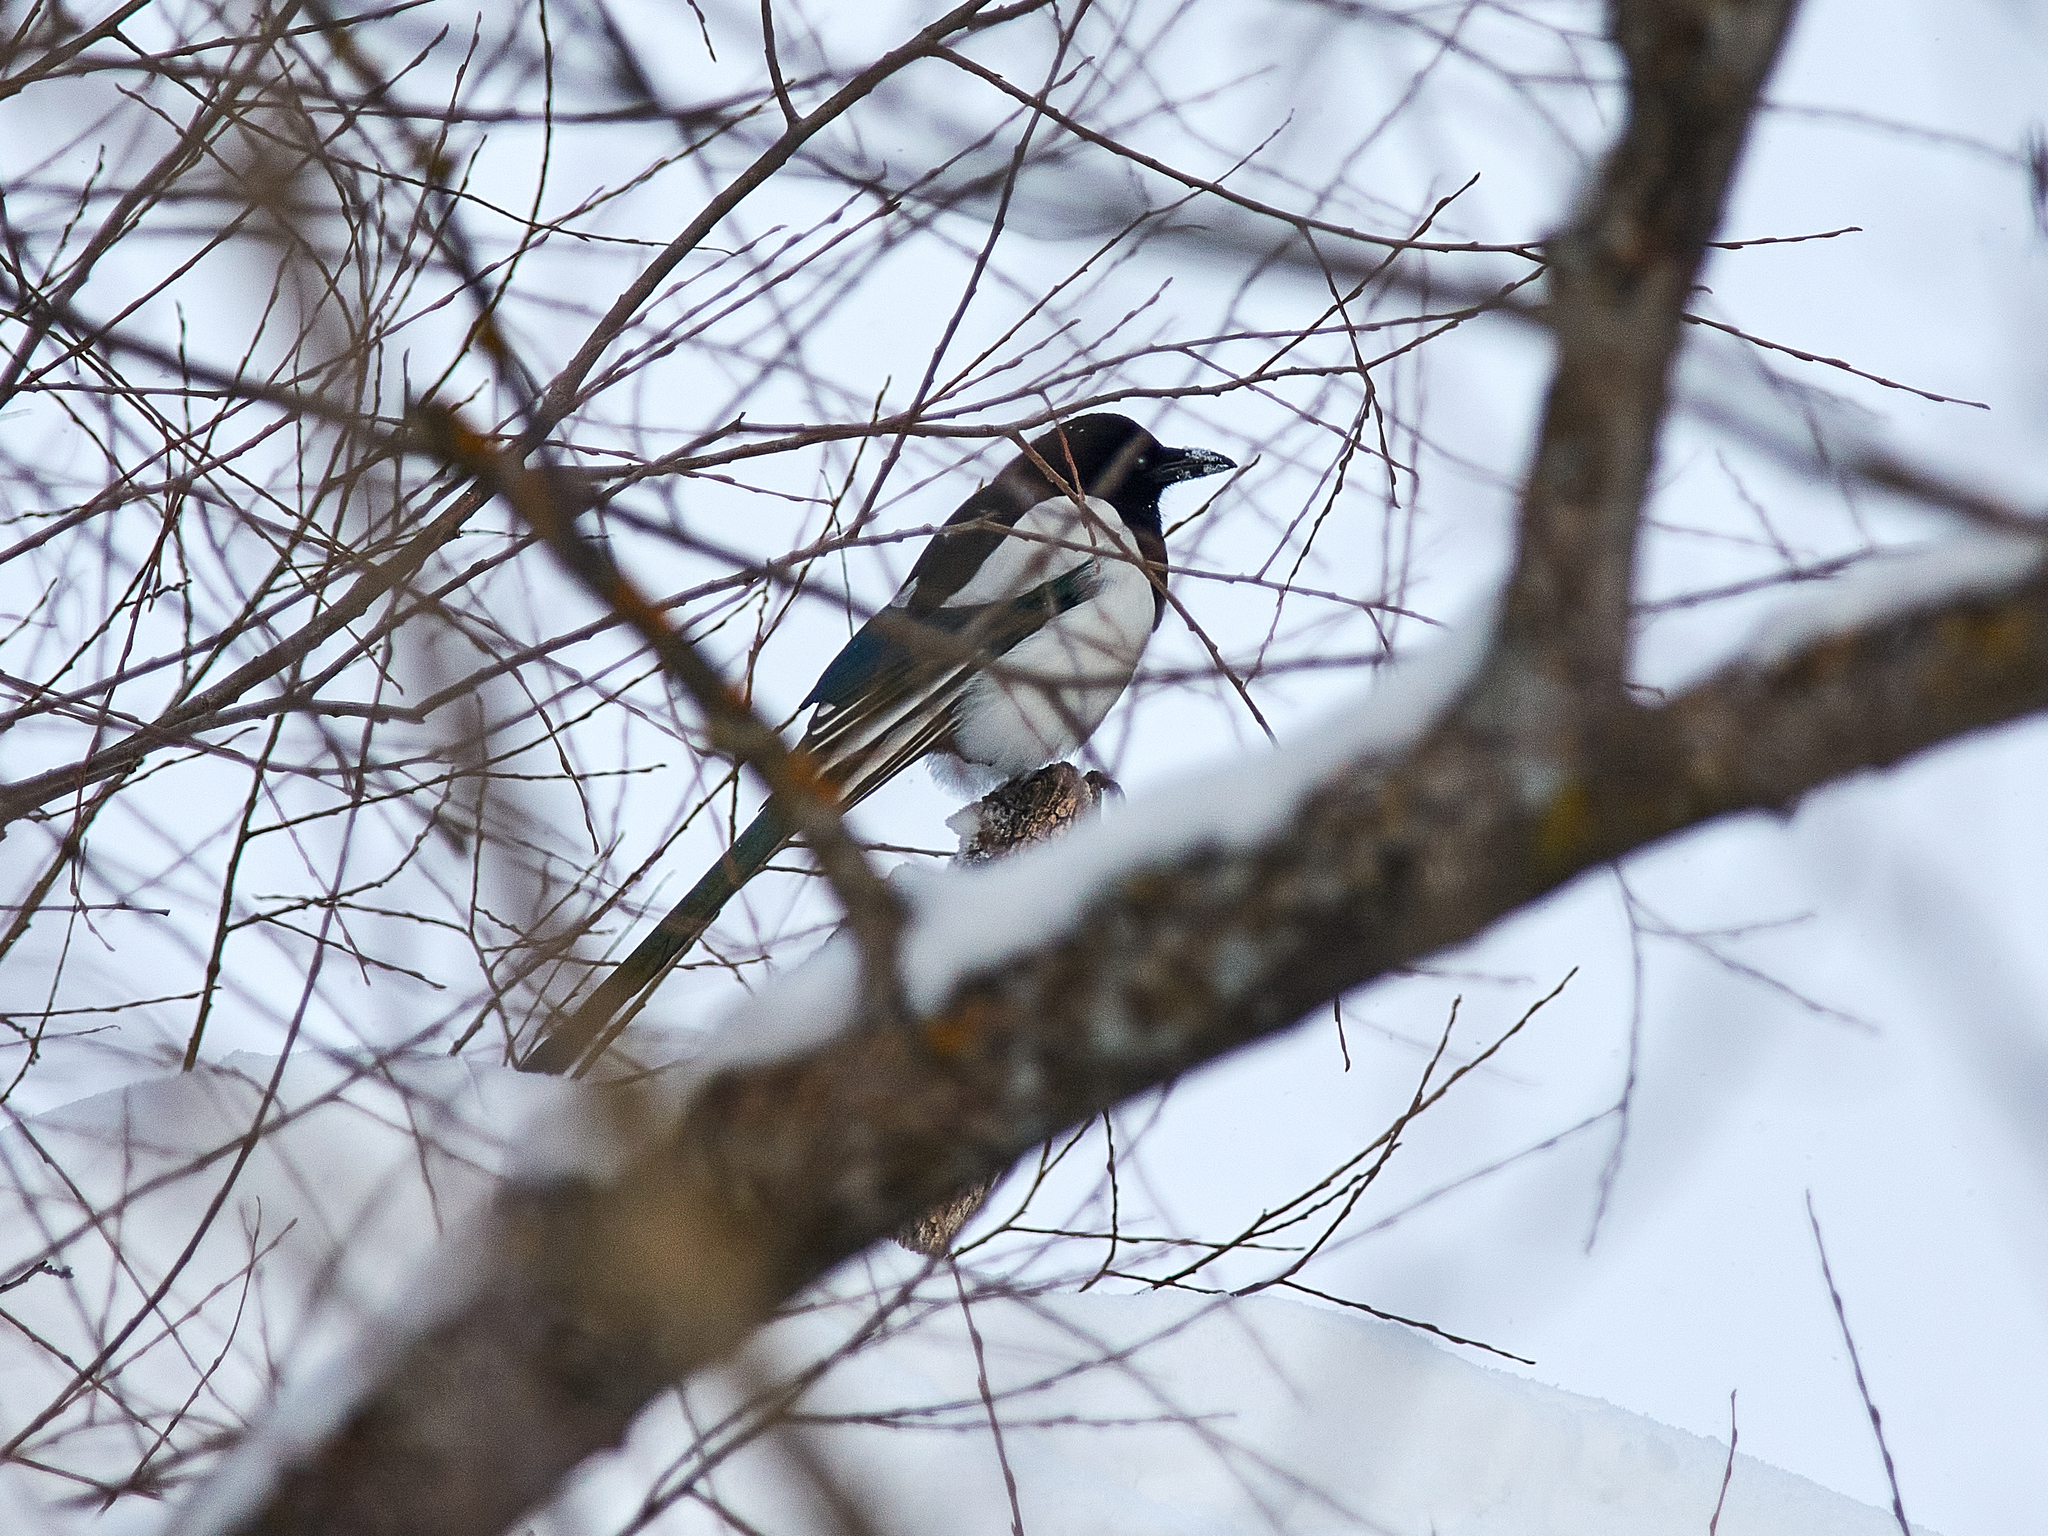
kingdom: Animalia
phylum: Chordata
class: Aves
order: Passeriformes
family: Corvidae
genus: Pica
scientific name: Pica pica
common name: Eurasian magpie
